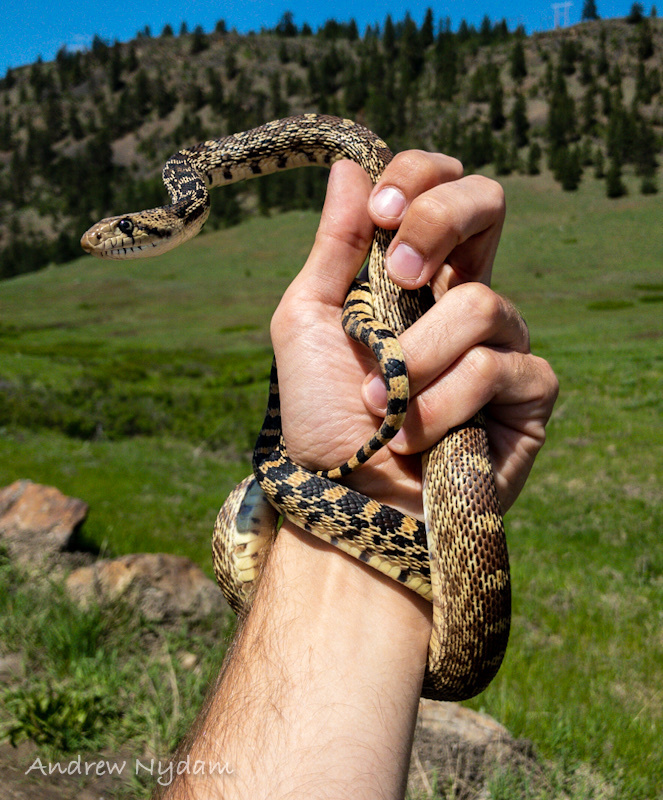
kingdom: Animalia
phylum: Chordata
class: Squamata
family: Colubridae
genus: Pituophis
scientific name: Pituophis catenifer
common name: Gopher snake
